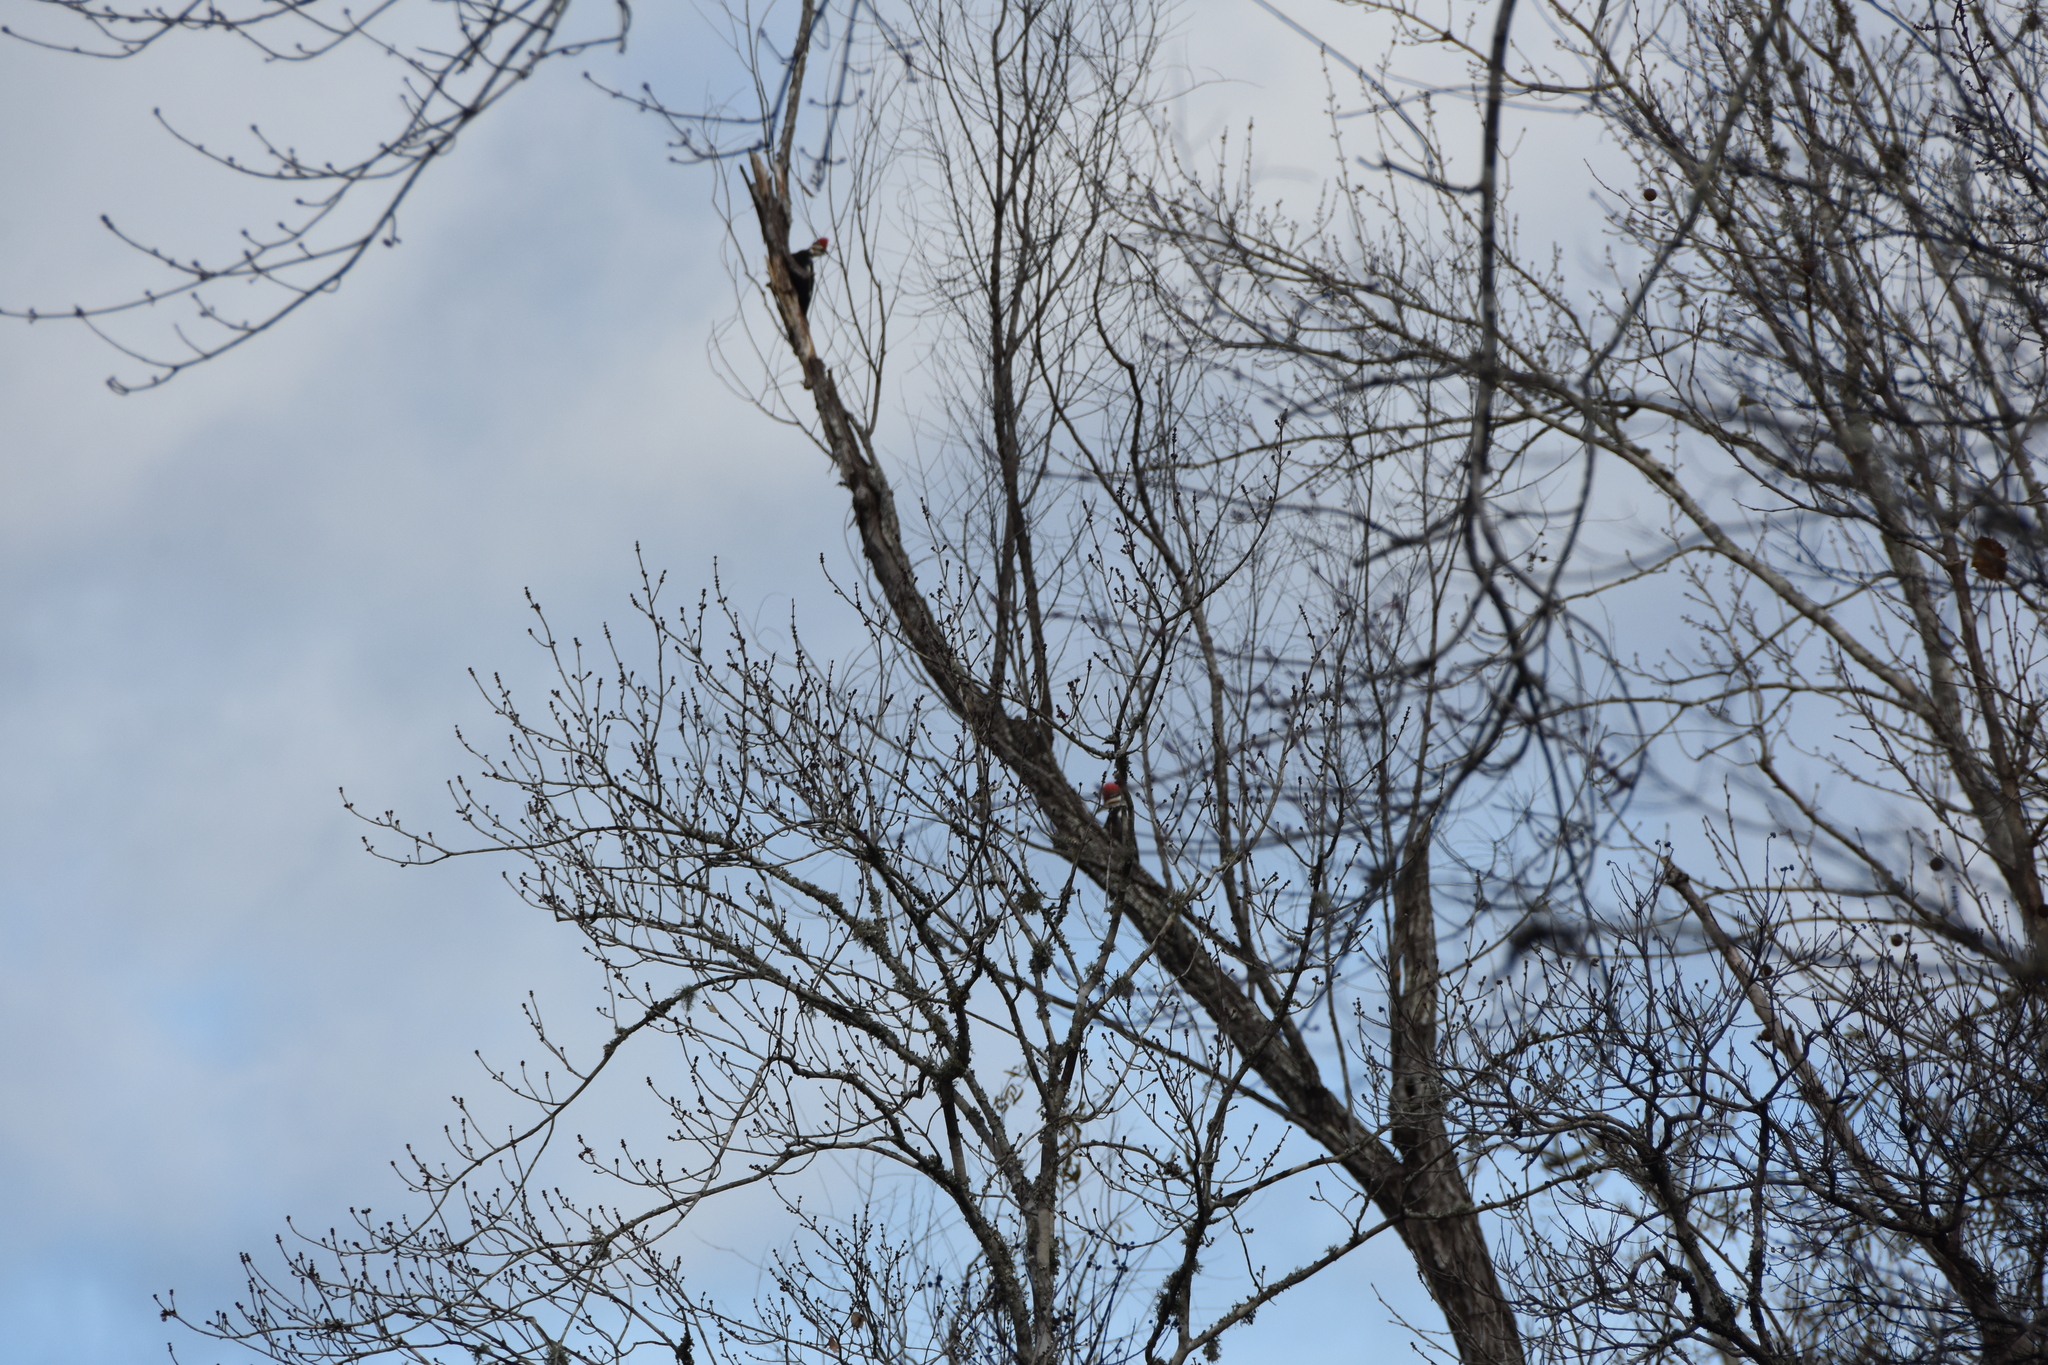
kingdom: Animalia
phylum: Chordata
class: Aves
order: Piciformes
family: Picidae
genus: Dryocopus
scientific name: Dryocopus pileatus
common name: Pileated woodpecker
